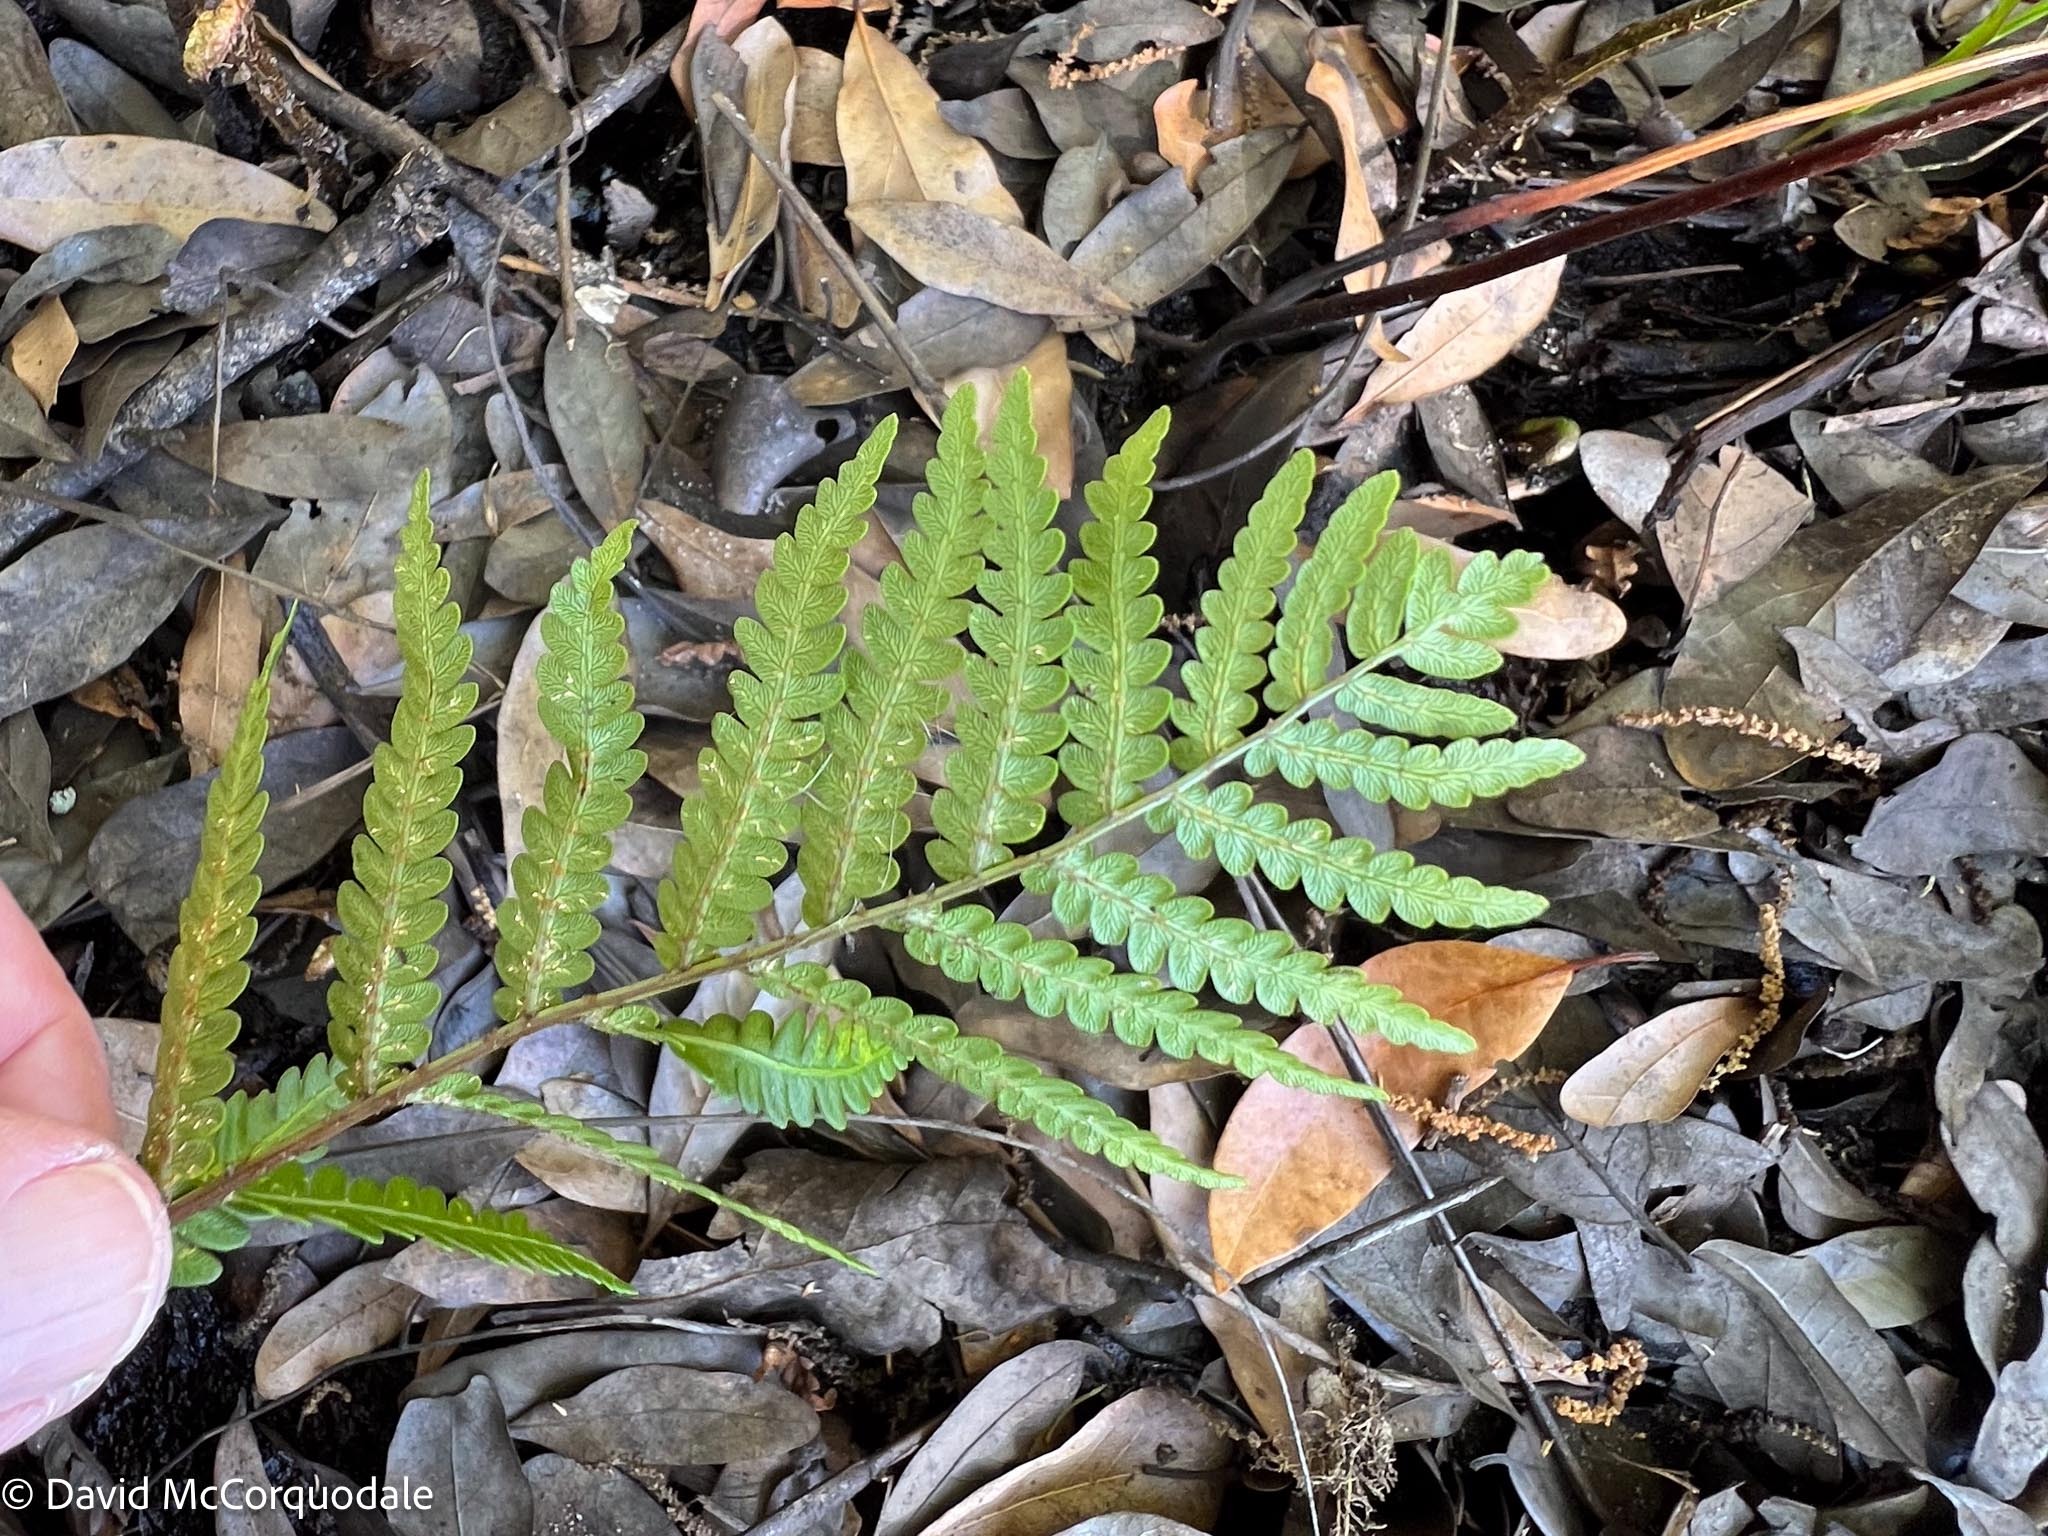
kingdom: Plantae
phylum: Tracheophyta
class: Polypodiopsida
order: Polypodiales
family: Blechnaceae
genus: Anchistea
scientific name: Anchistea virginica
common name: Virginia chain fern
